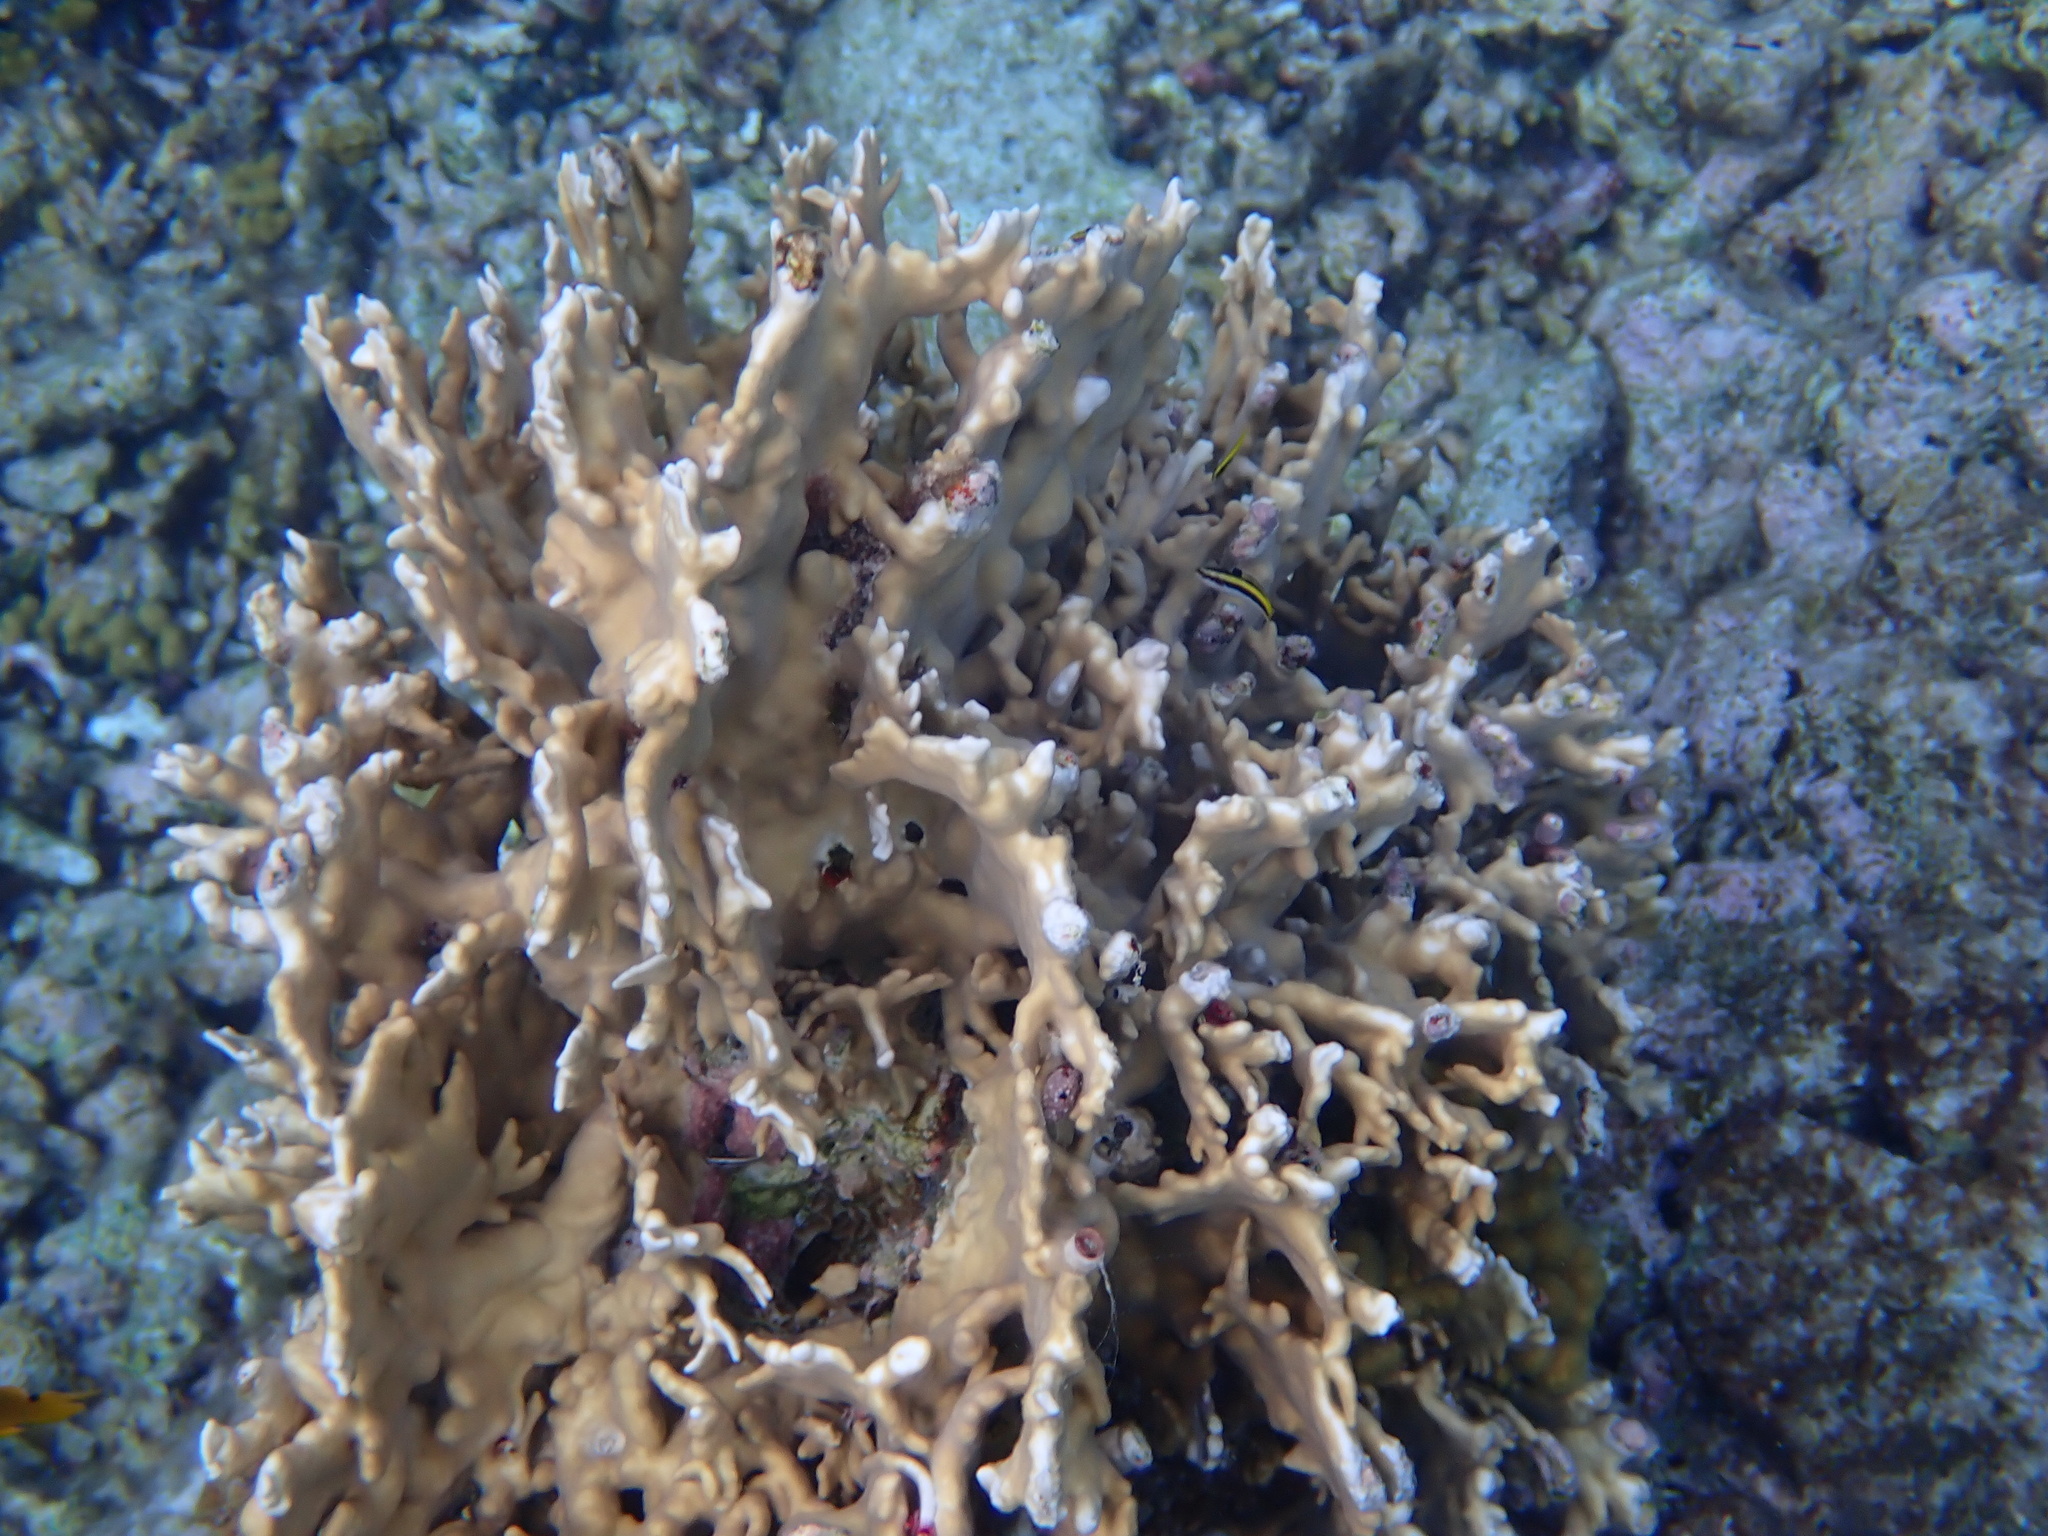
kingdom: Animalia
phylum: Cnidaria
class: Hydrozoa
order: Anthoathecata
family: Milleporidae
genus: Millepora
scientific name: Millepora alcicornis
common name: Branching fire coral
